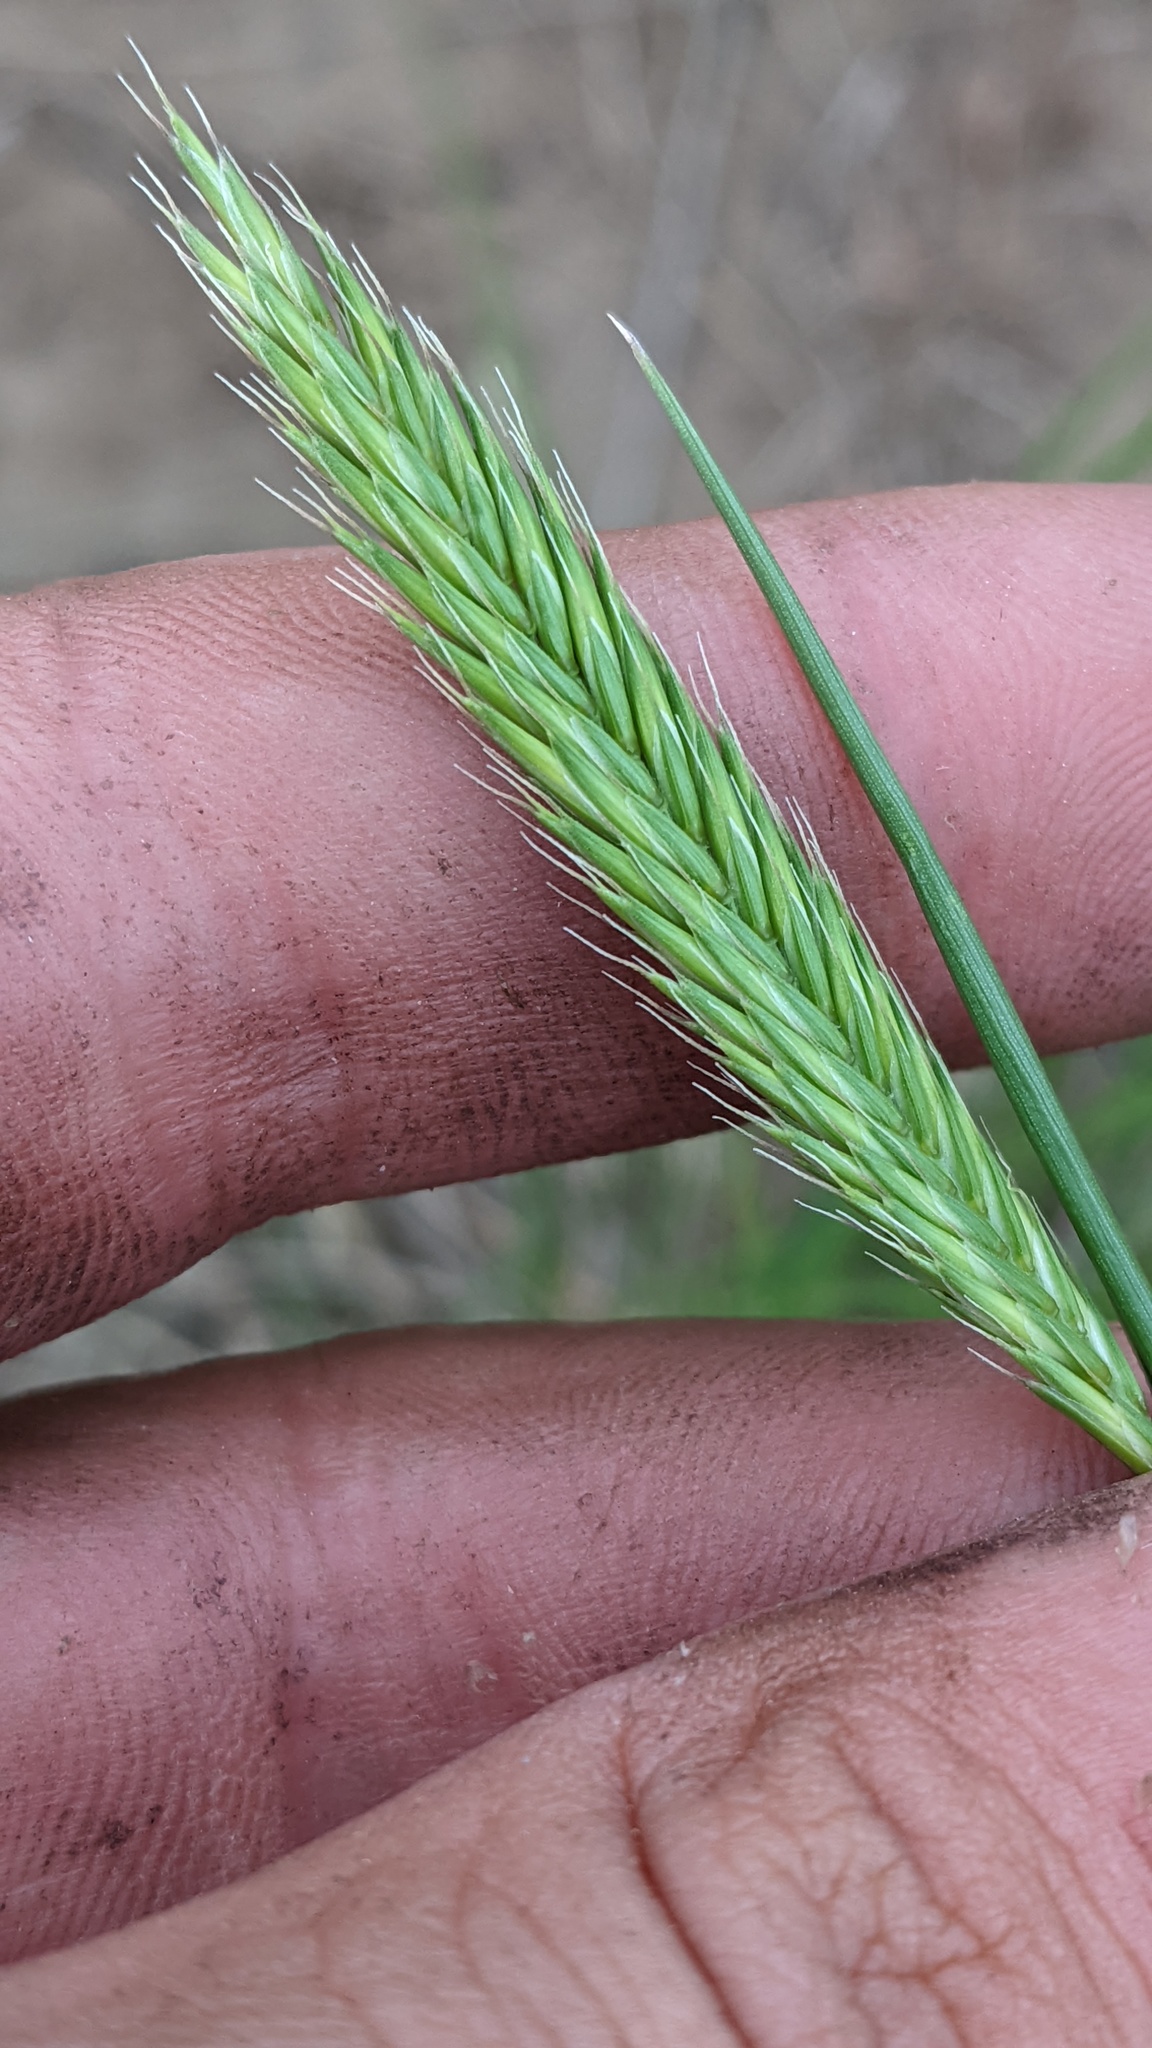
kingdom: Plantae
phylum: Tracheophyta
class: Liliopsida
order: Poales
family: Poaceae
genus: Agropyron
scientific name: Agropyron cristatum
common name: Crested wheatgrass
